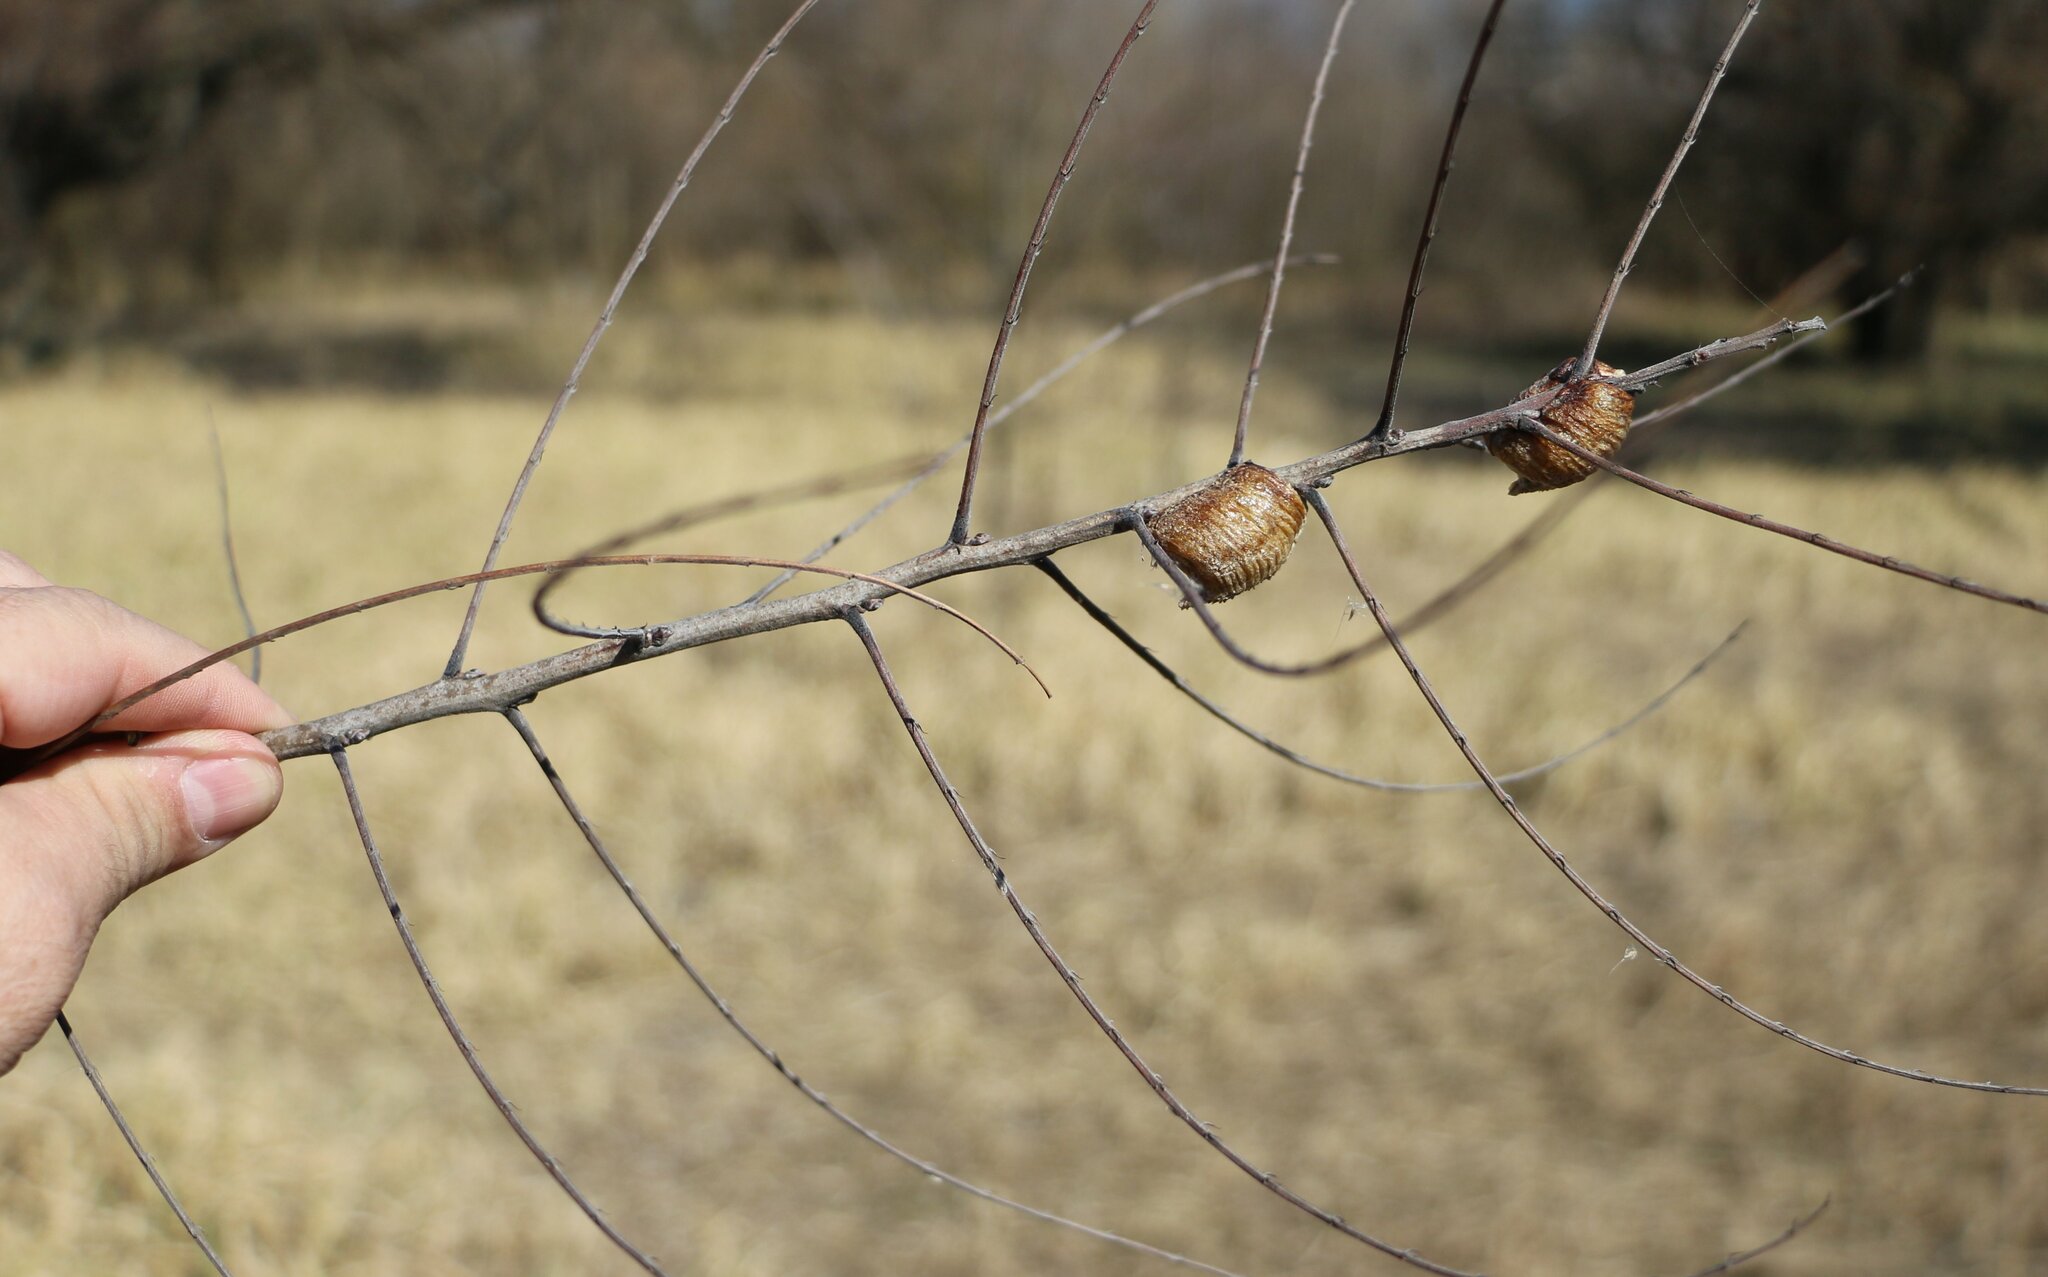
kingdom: Animalia
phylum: Arthropoda
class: Insecta
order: Mantodea
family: Mantidae
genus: Hierodula
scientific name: Hierodula transcaucasica
